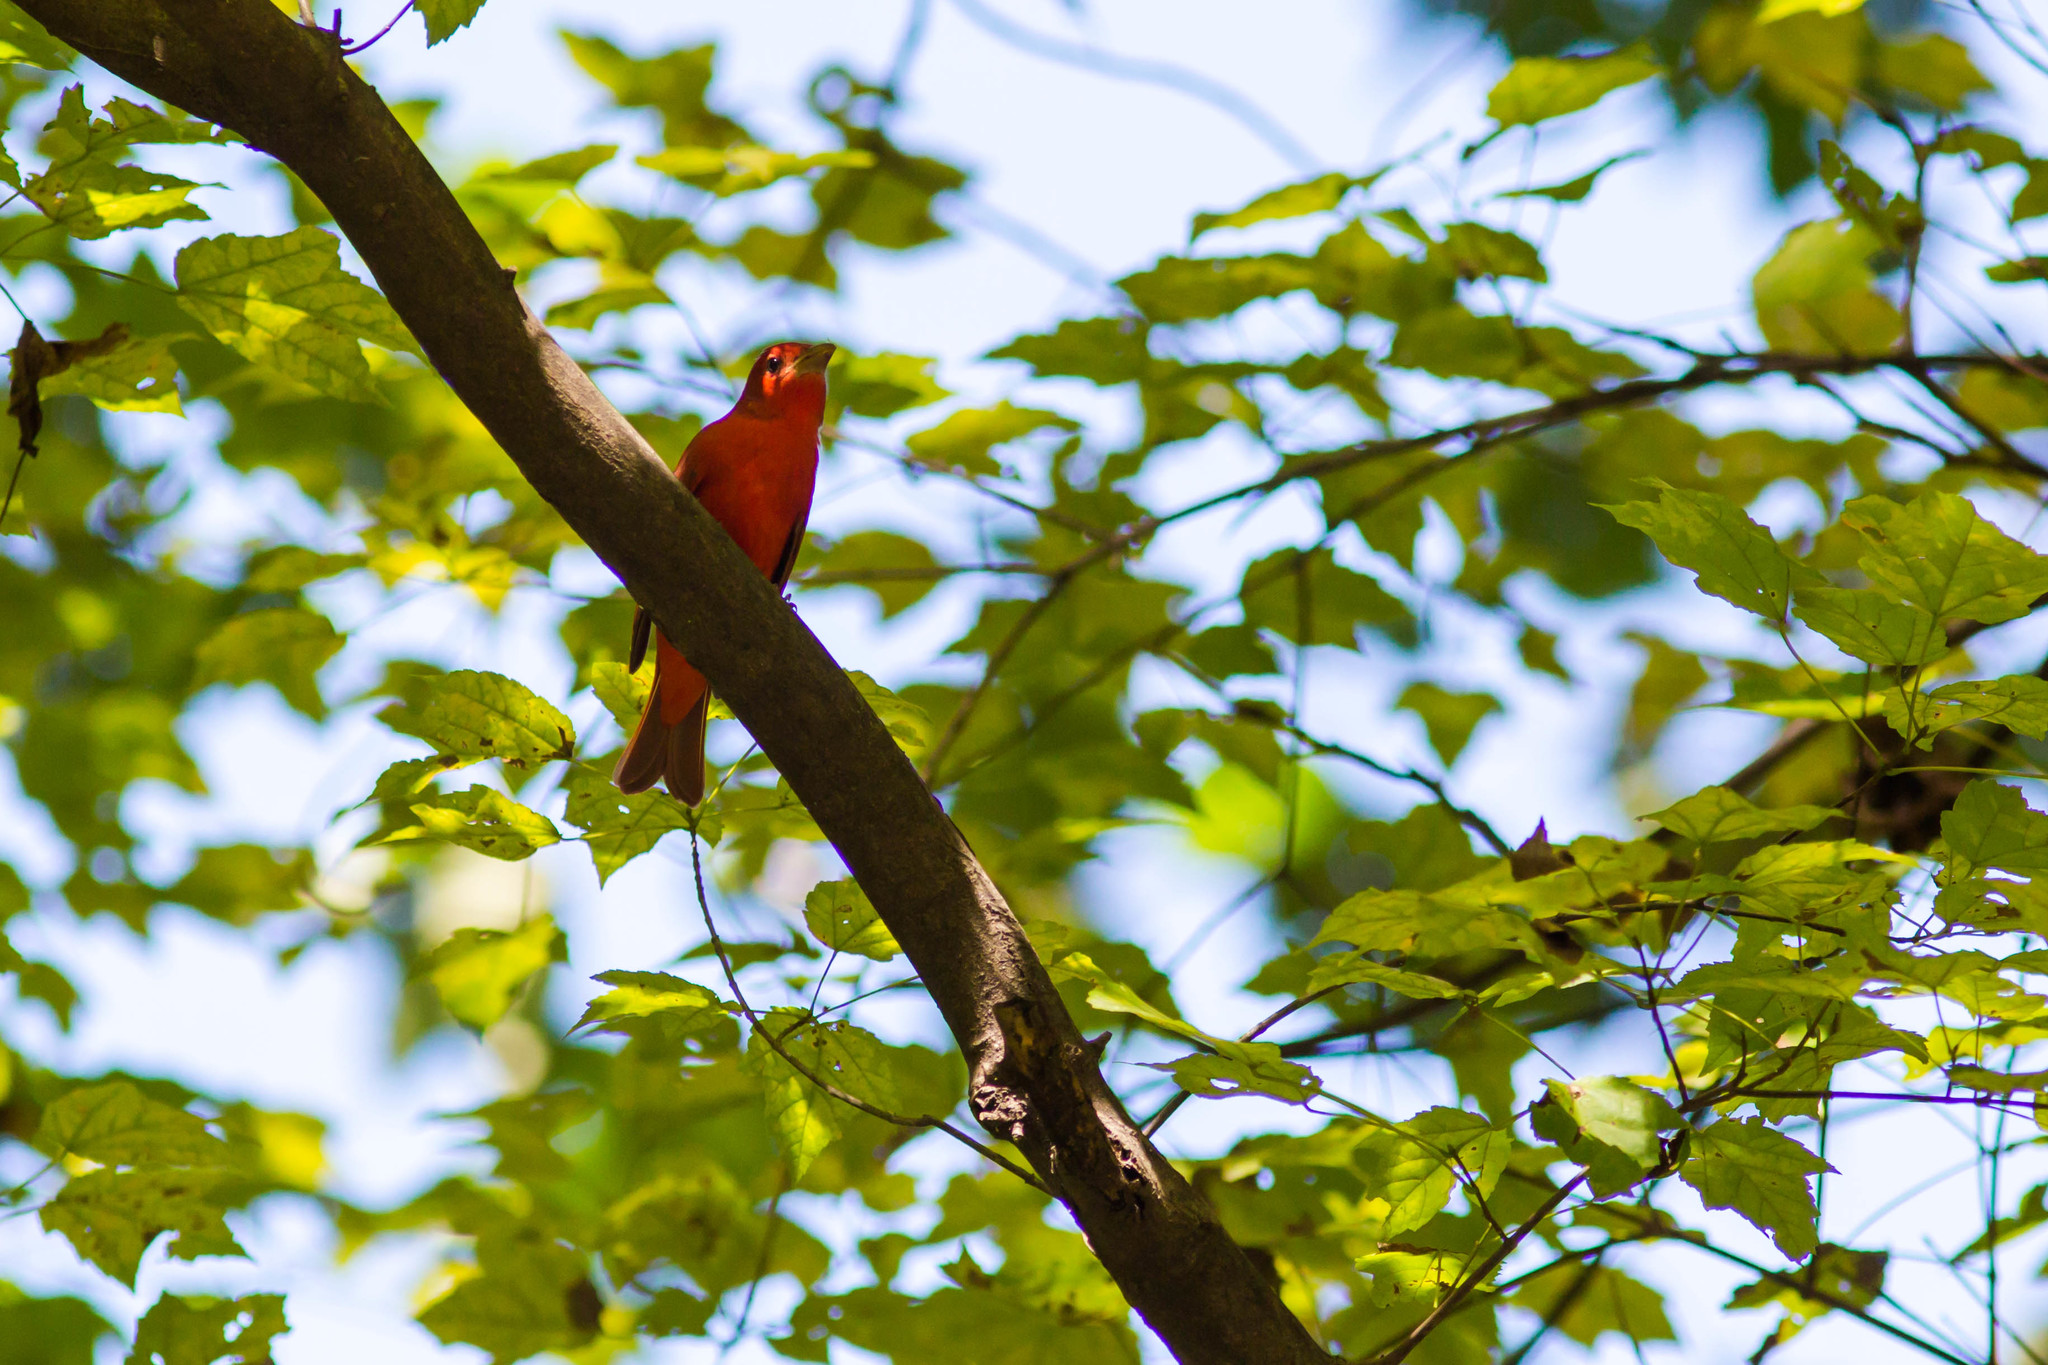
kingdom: Animalia
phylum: Chordata
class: Aves
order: Passeriformes
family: Cardinalidae
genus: Piranga
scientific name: Piranga rubra
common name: Summer tanager
